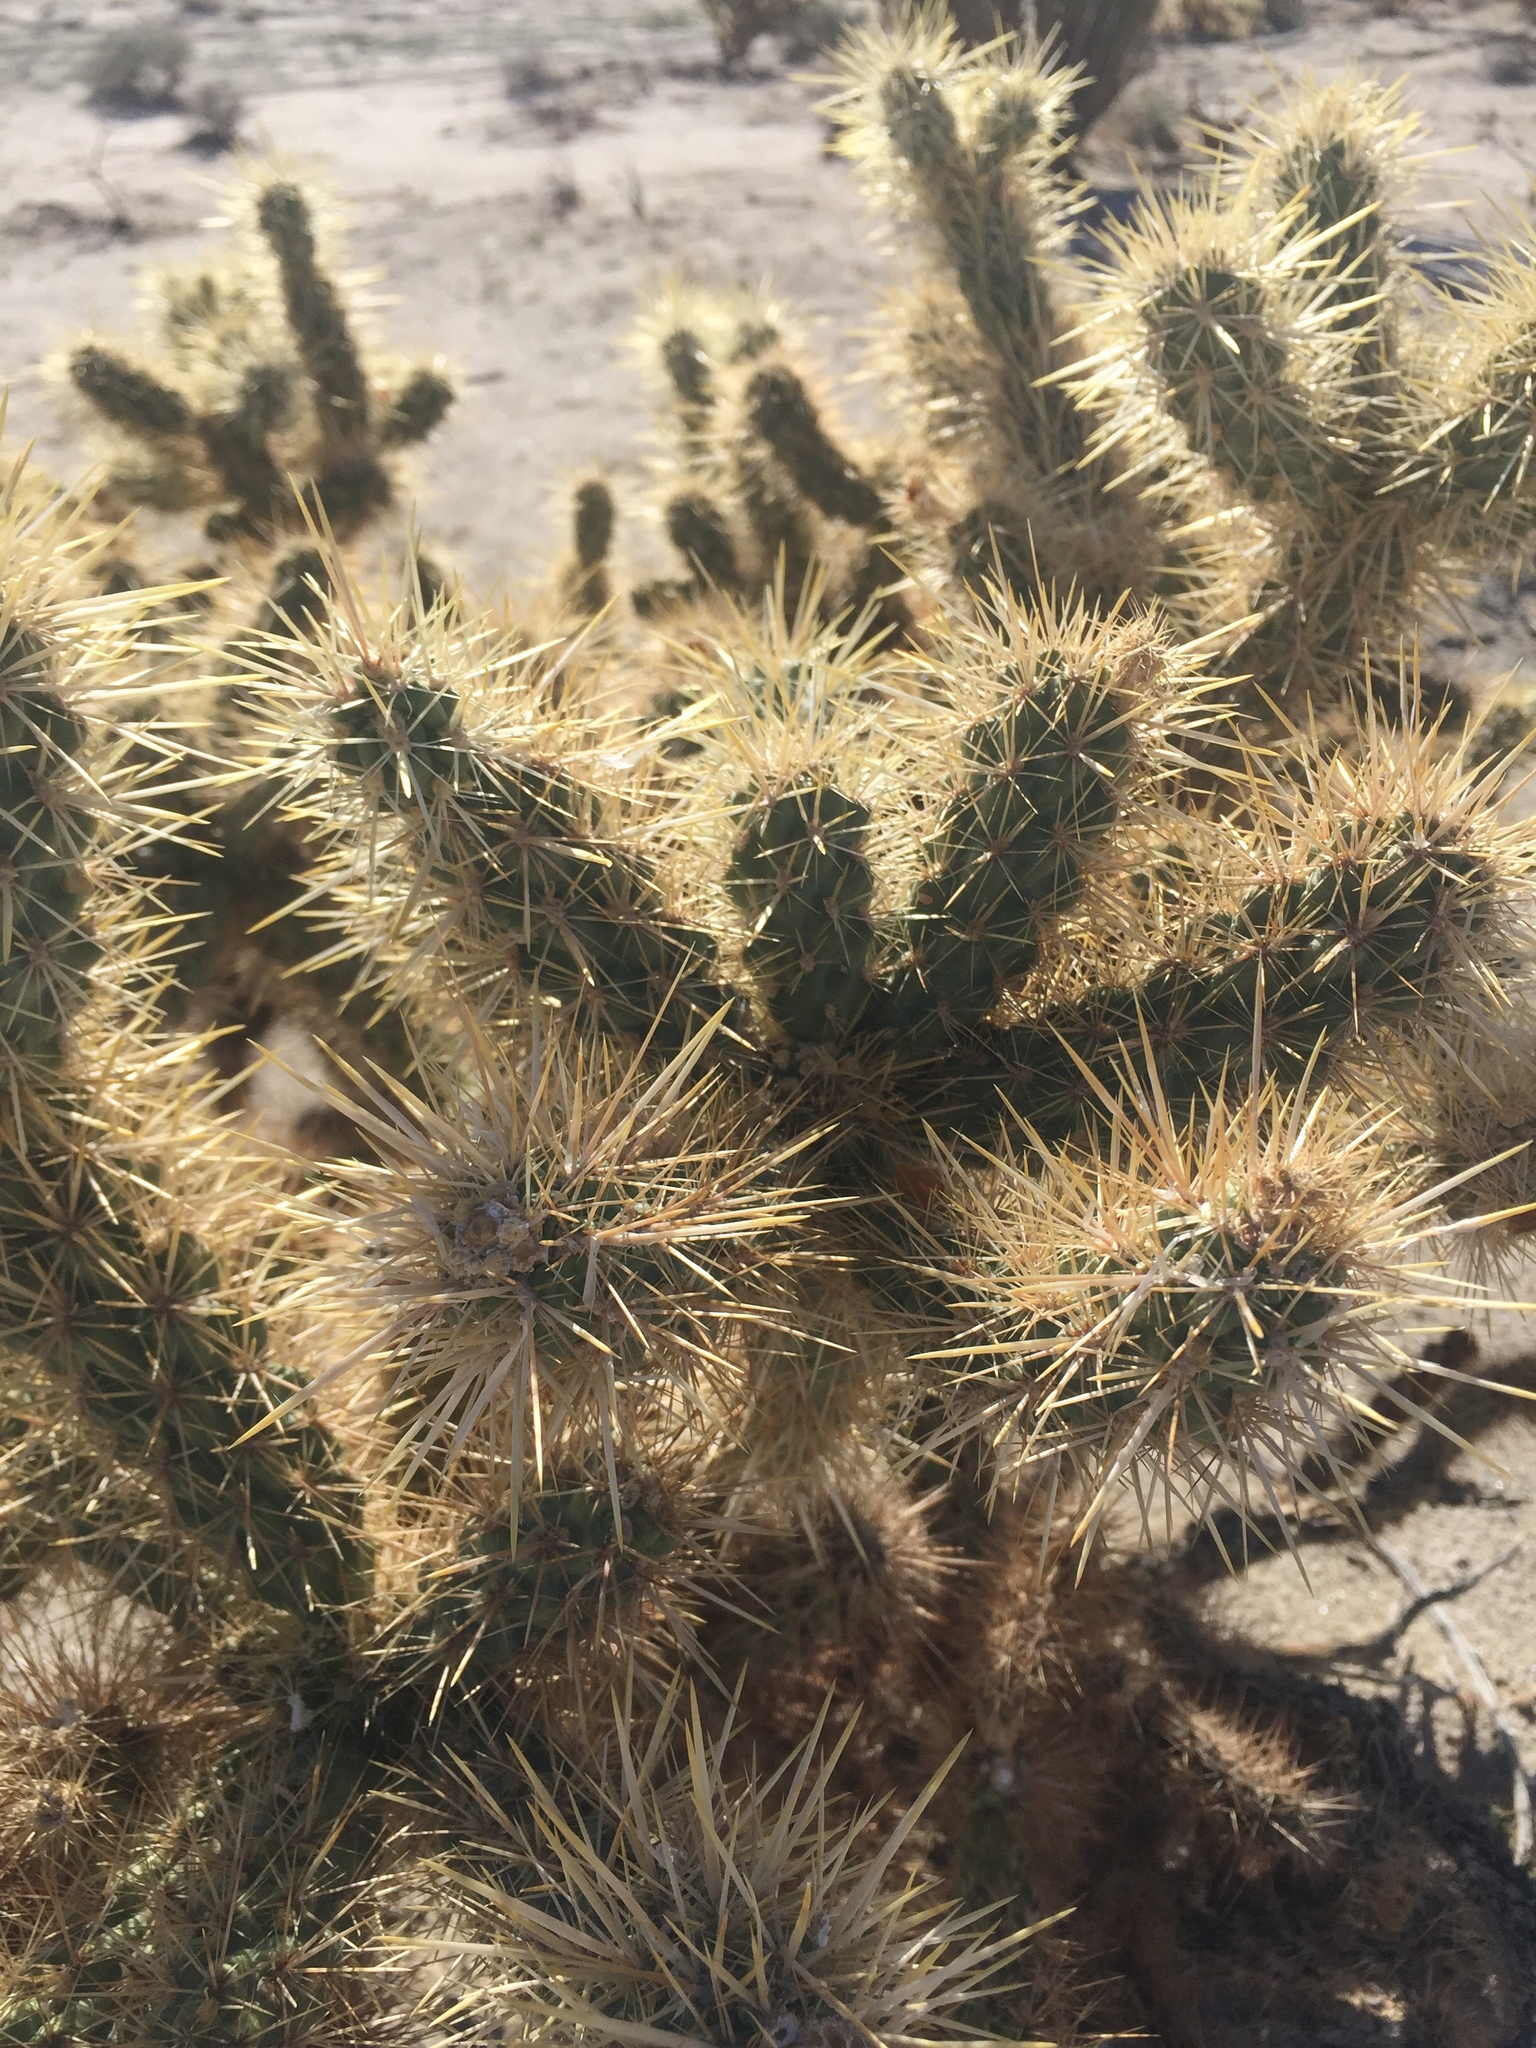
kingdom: Plantae
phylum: Tracheophyta
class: Magnoliopsida
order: Caryophyllales
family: Cactaceae
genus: Cylindropuntia
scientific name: Cylindropuntia echinocarpa
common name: Ground cholla
